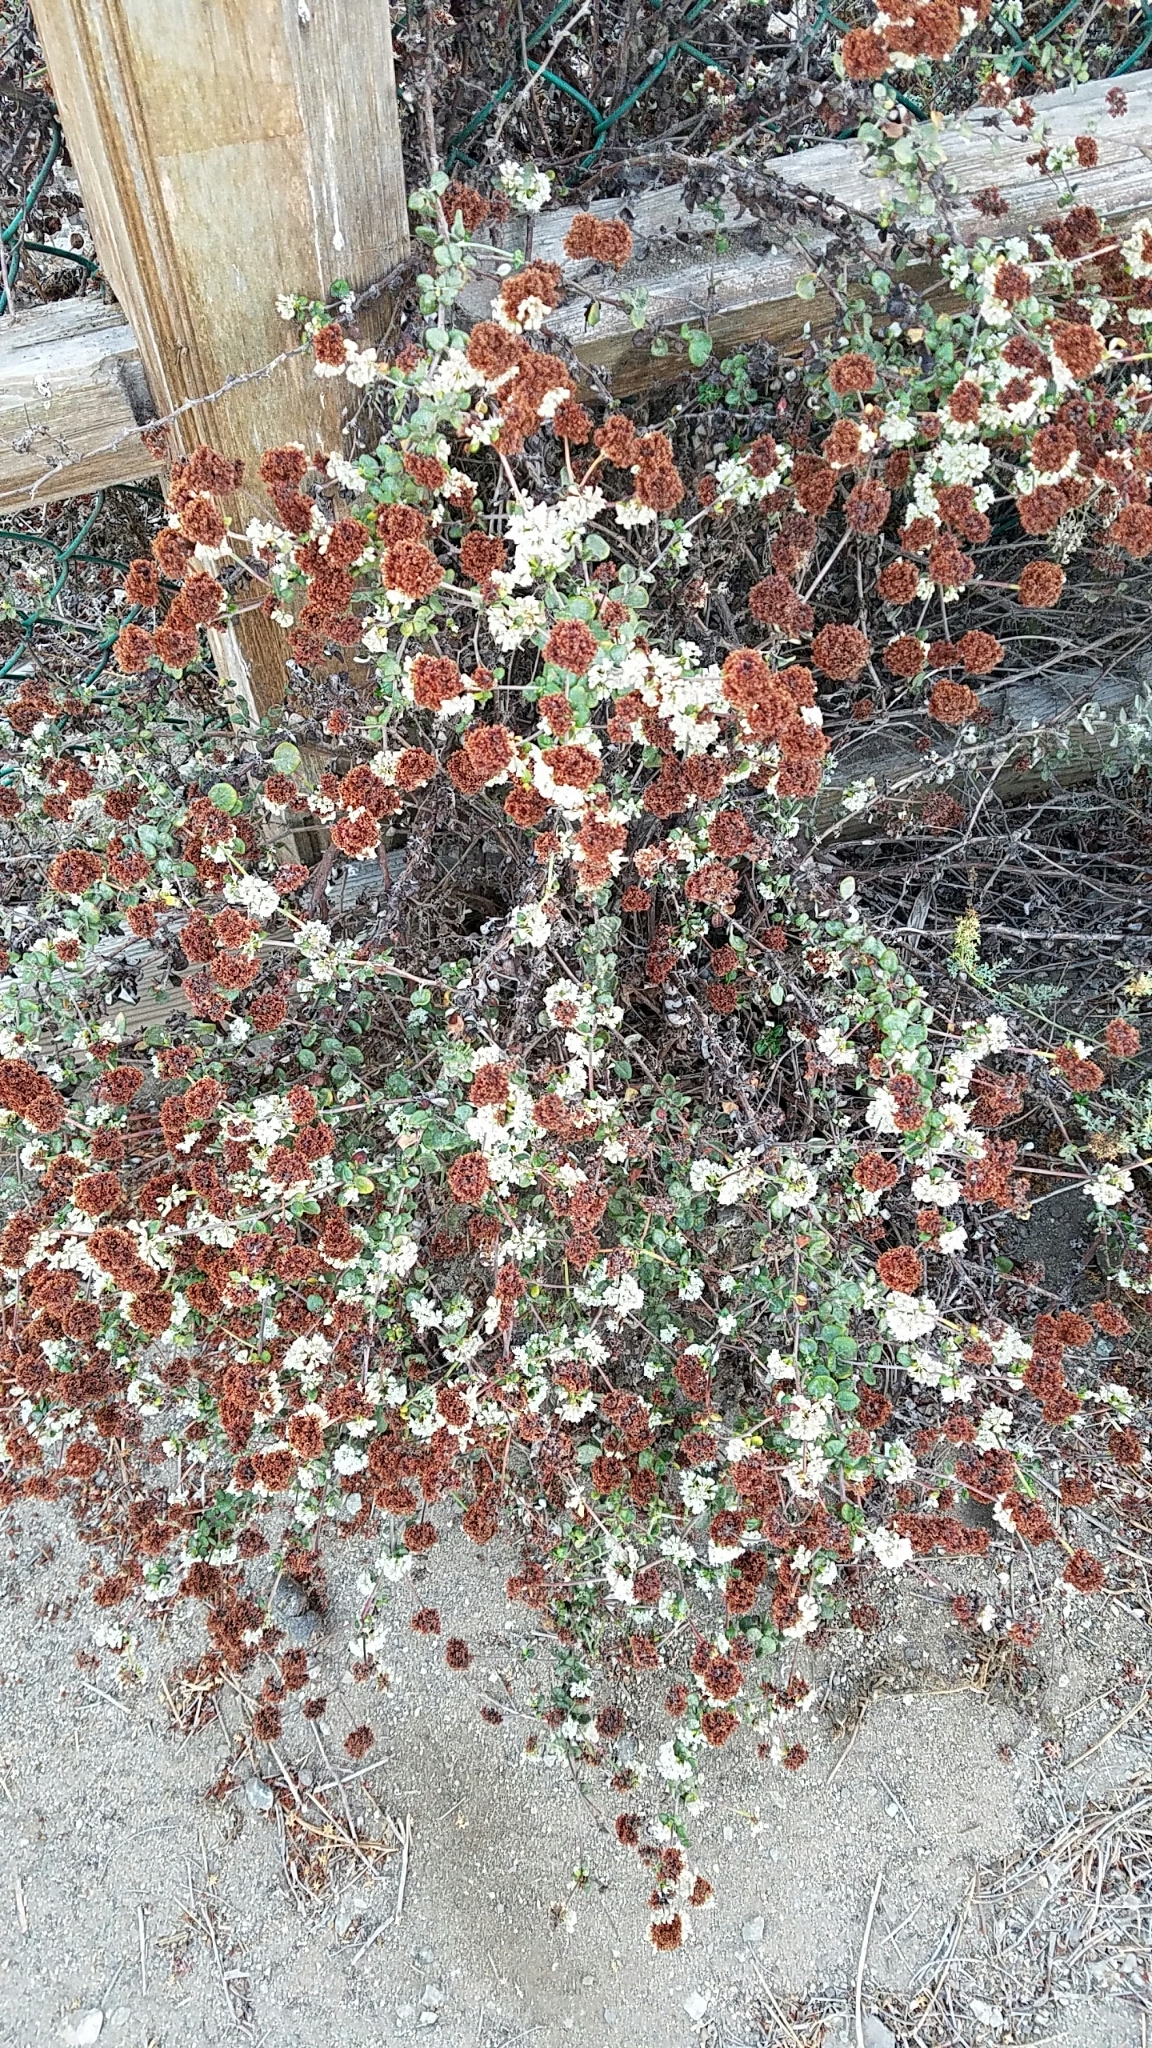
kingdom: Plantae
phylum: Tracheophyta
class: Magnoliopsida
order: Caryophyllales
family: Polygonaceae
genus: Eriogonum
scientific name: Eriogonum parvifolium
